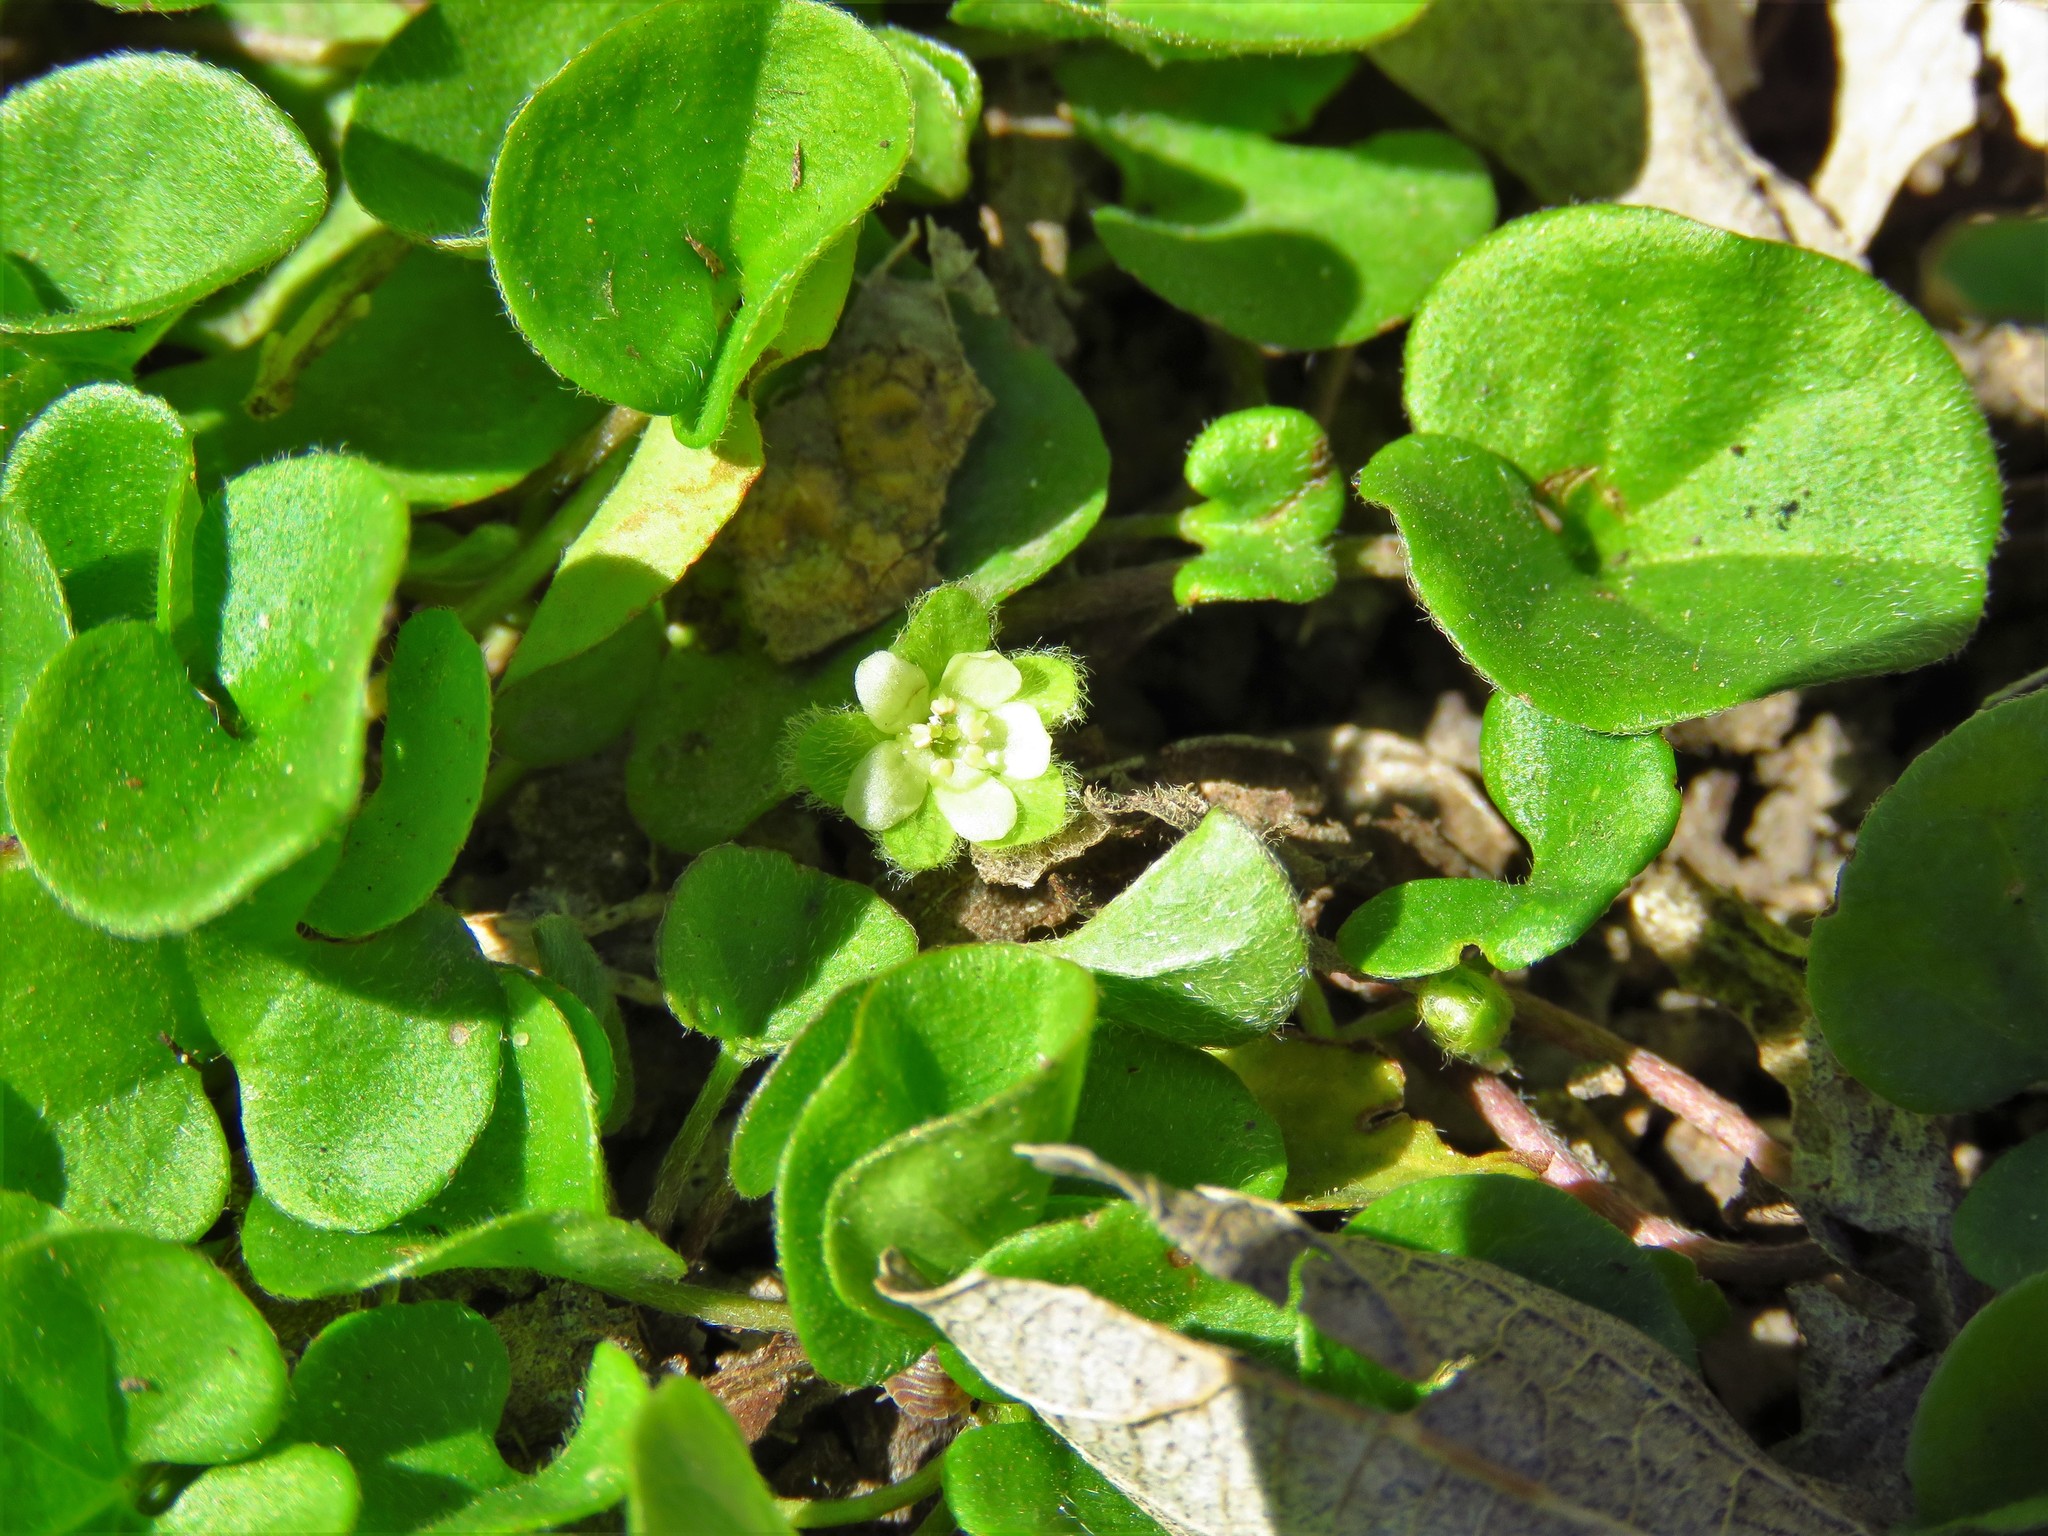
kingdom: Plantae
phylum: Tracheophyta
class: Magnoliopsida
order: Solanales
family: Convolvulaceae
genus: Dichondra
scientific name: Dichondra carolinensis
